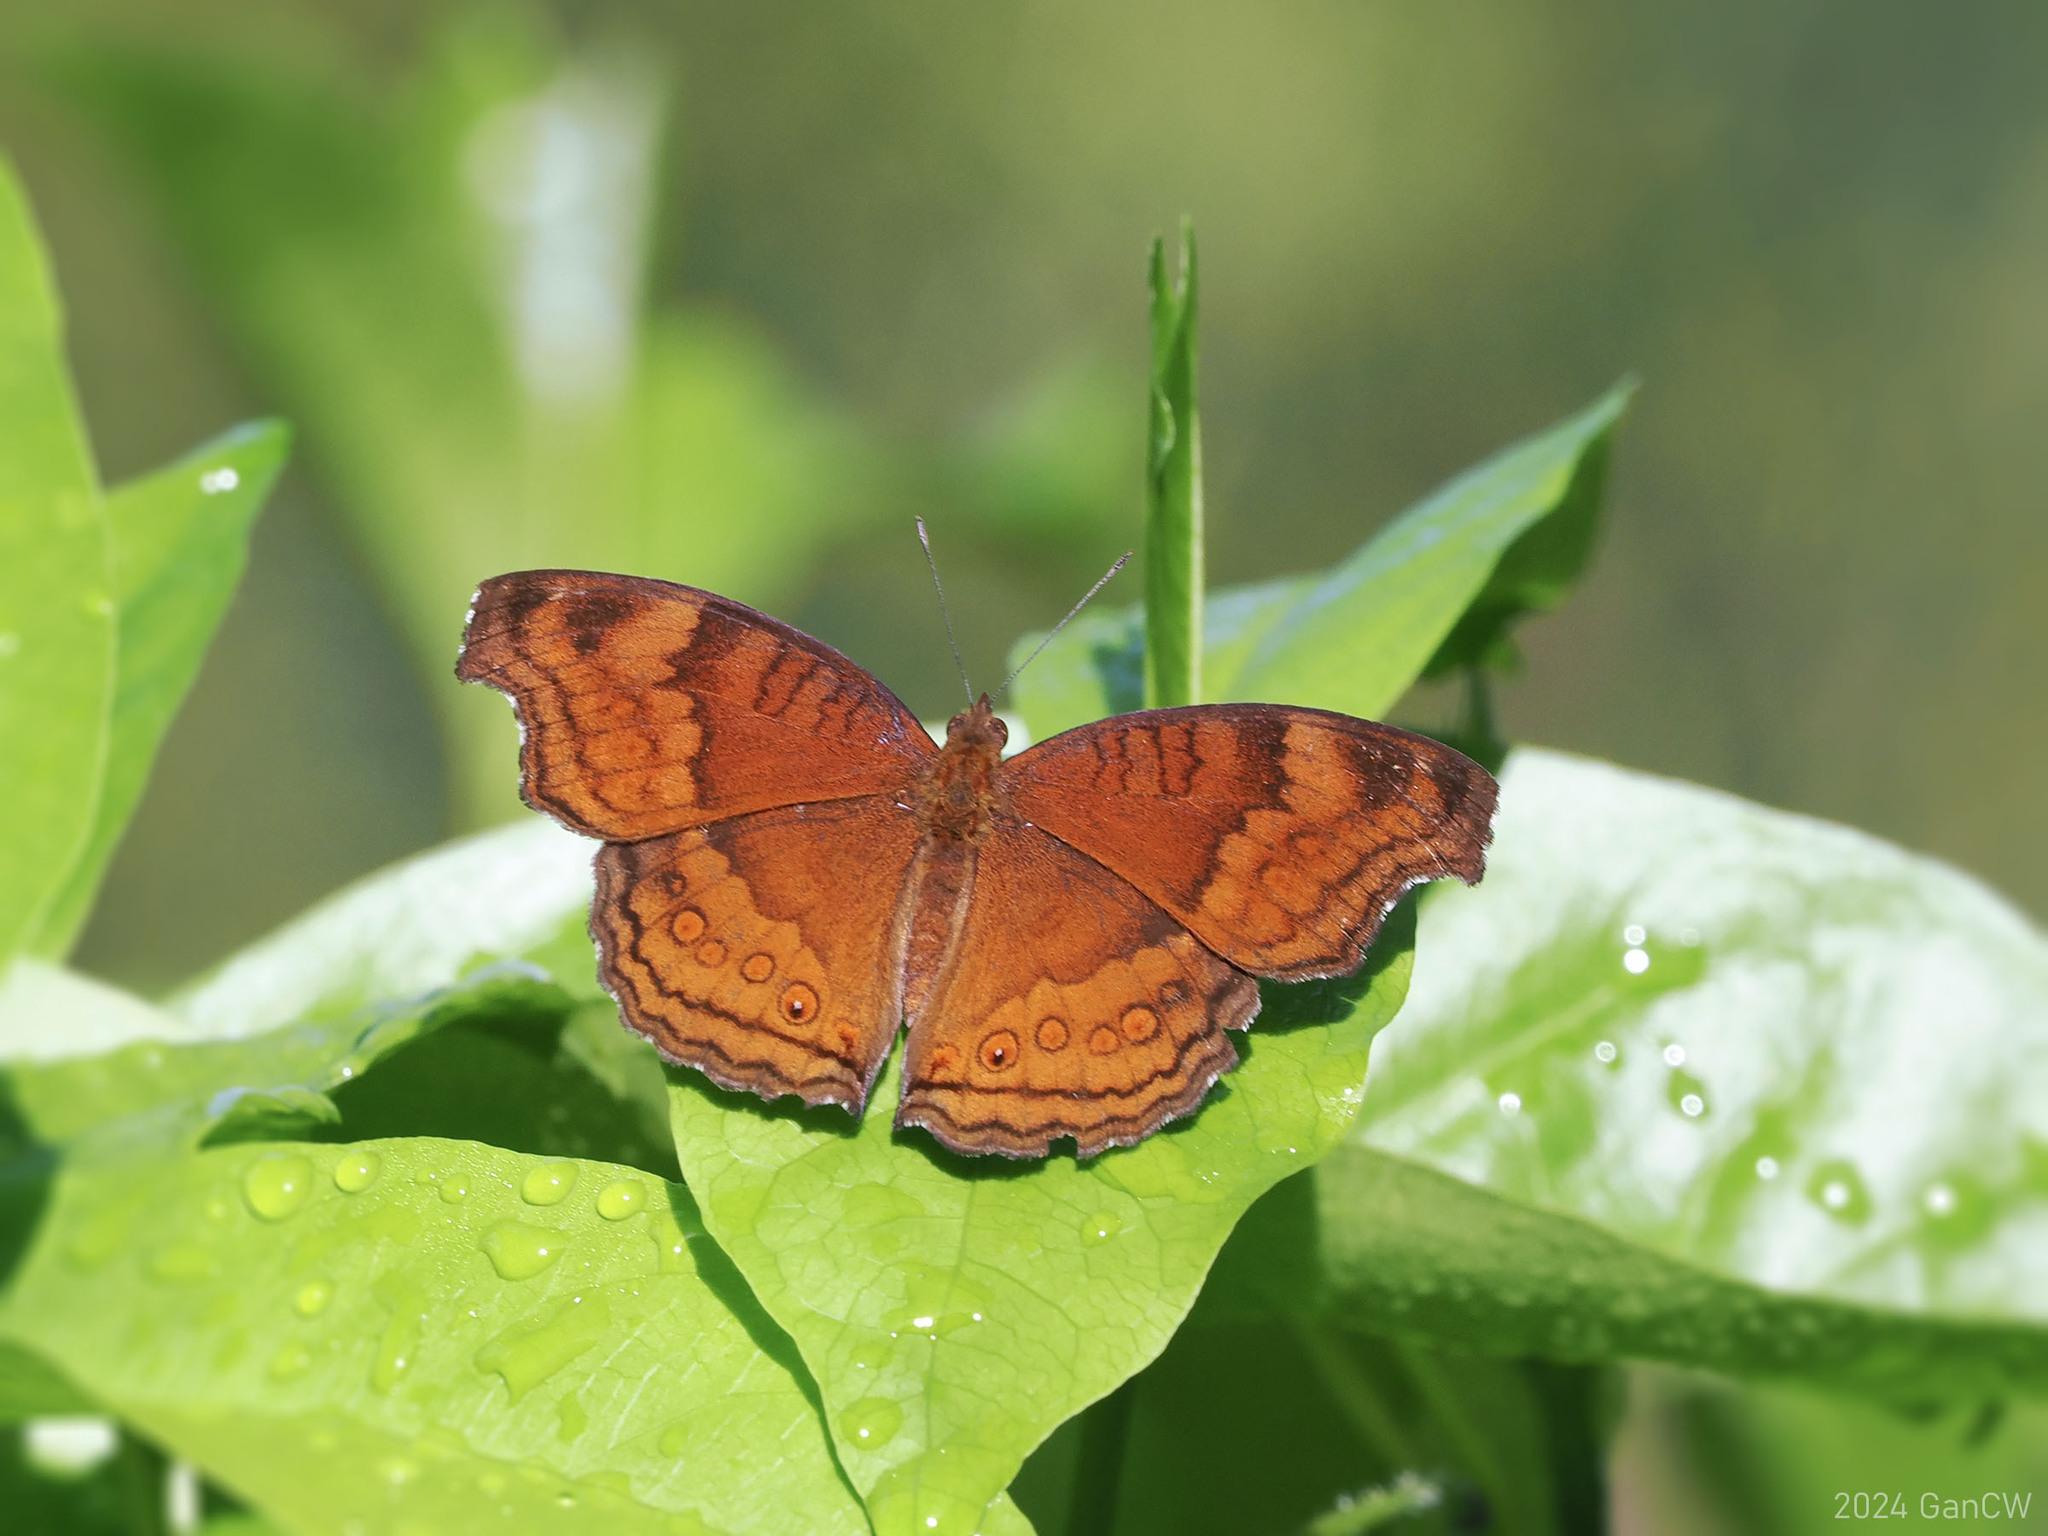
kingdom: Animalia
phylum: Arthropoda
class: Insecta
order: Lepidoptera
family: Nymphalidae
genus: Junonia
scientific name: Junonia hedonia
